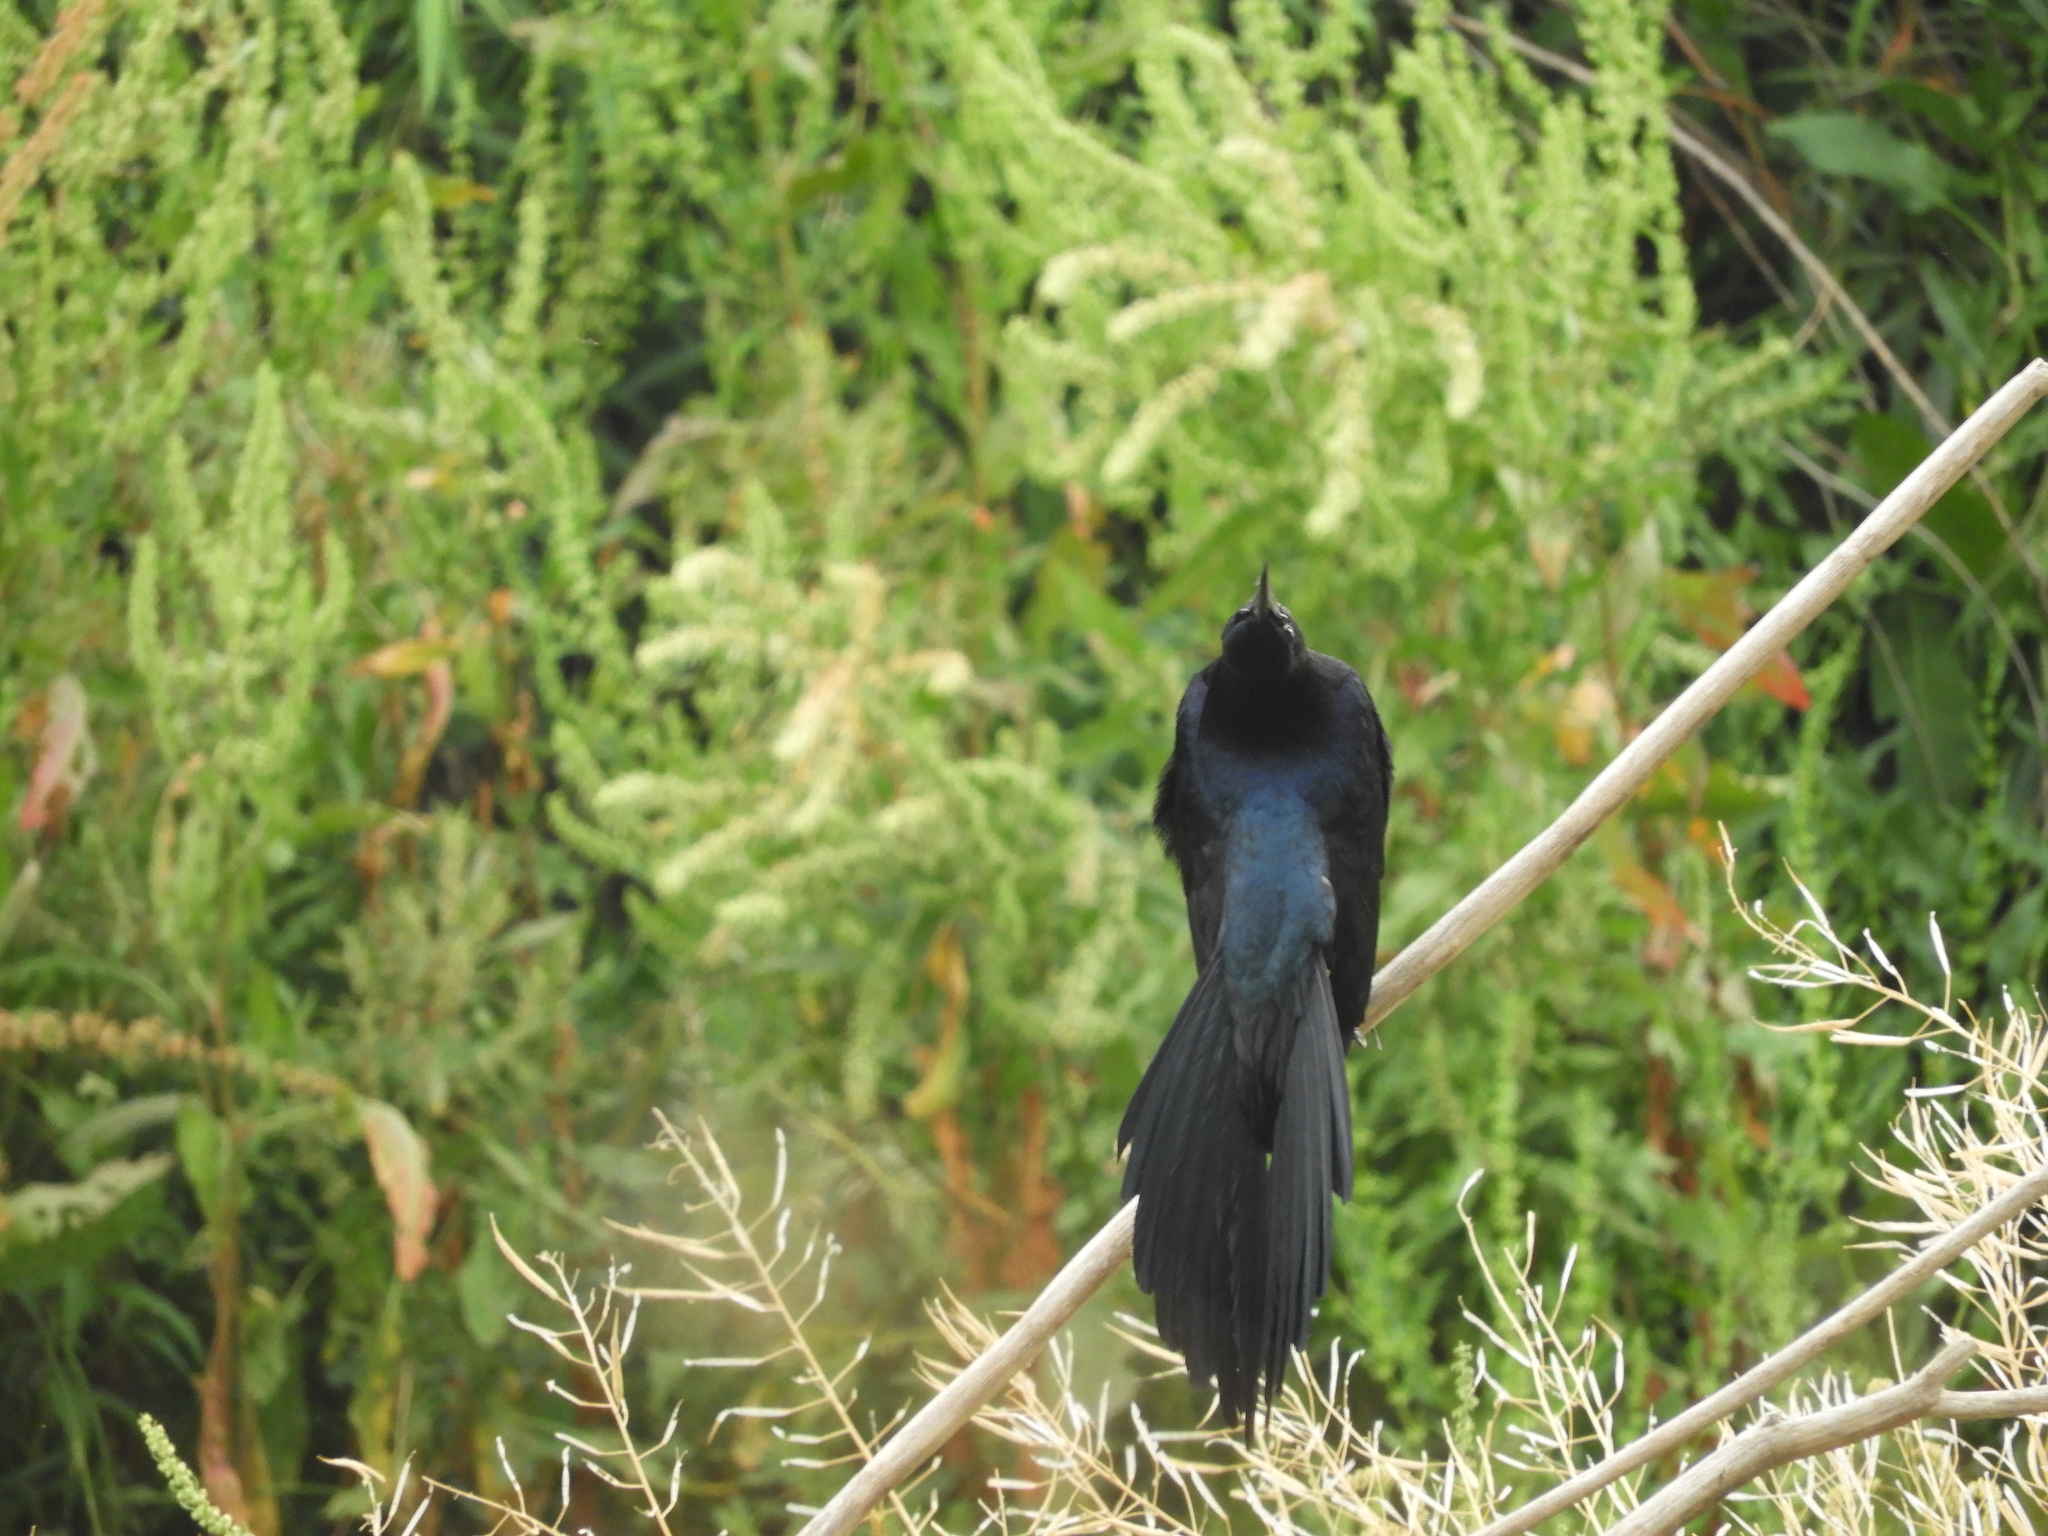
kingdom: Animalia
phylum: Chordata
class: Aves
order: Passeriformes
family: Icteridae
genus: Quiscalus
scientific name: Quiscalus mexicanus
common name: Great-tailed grackle
